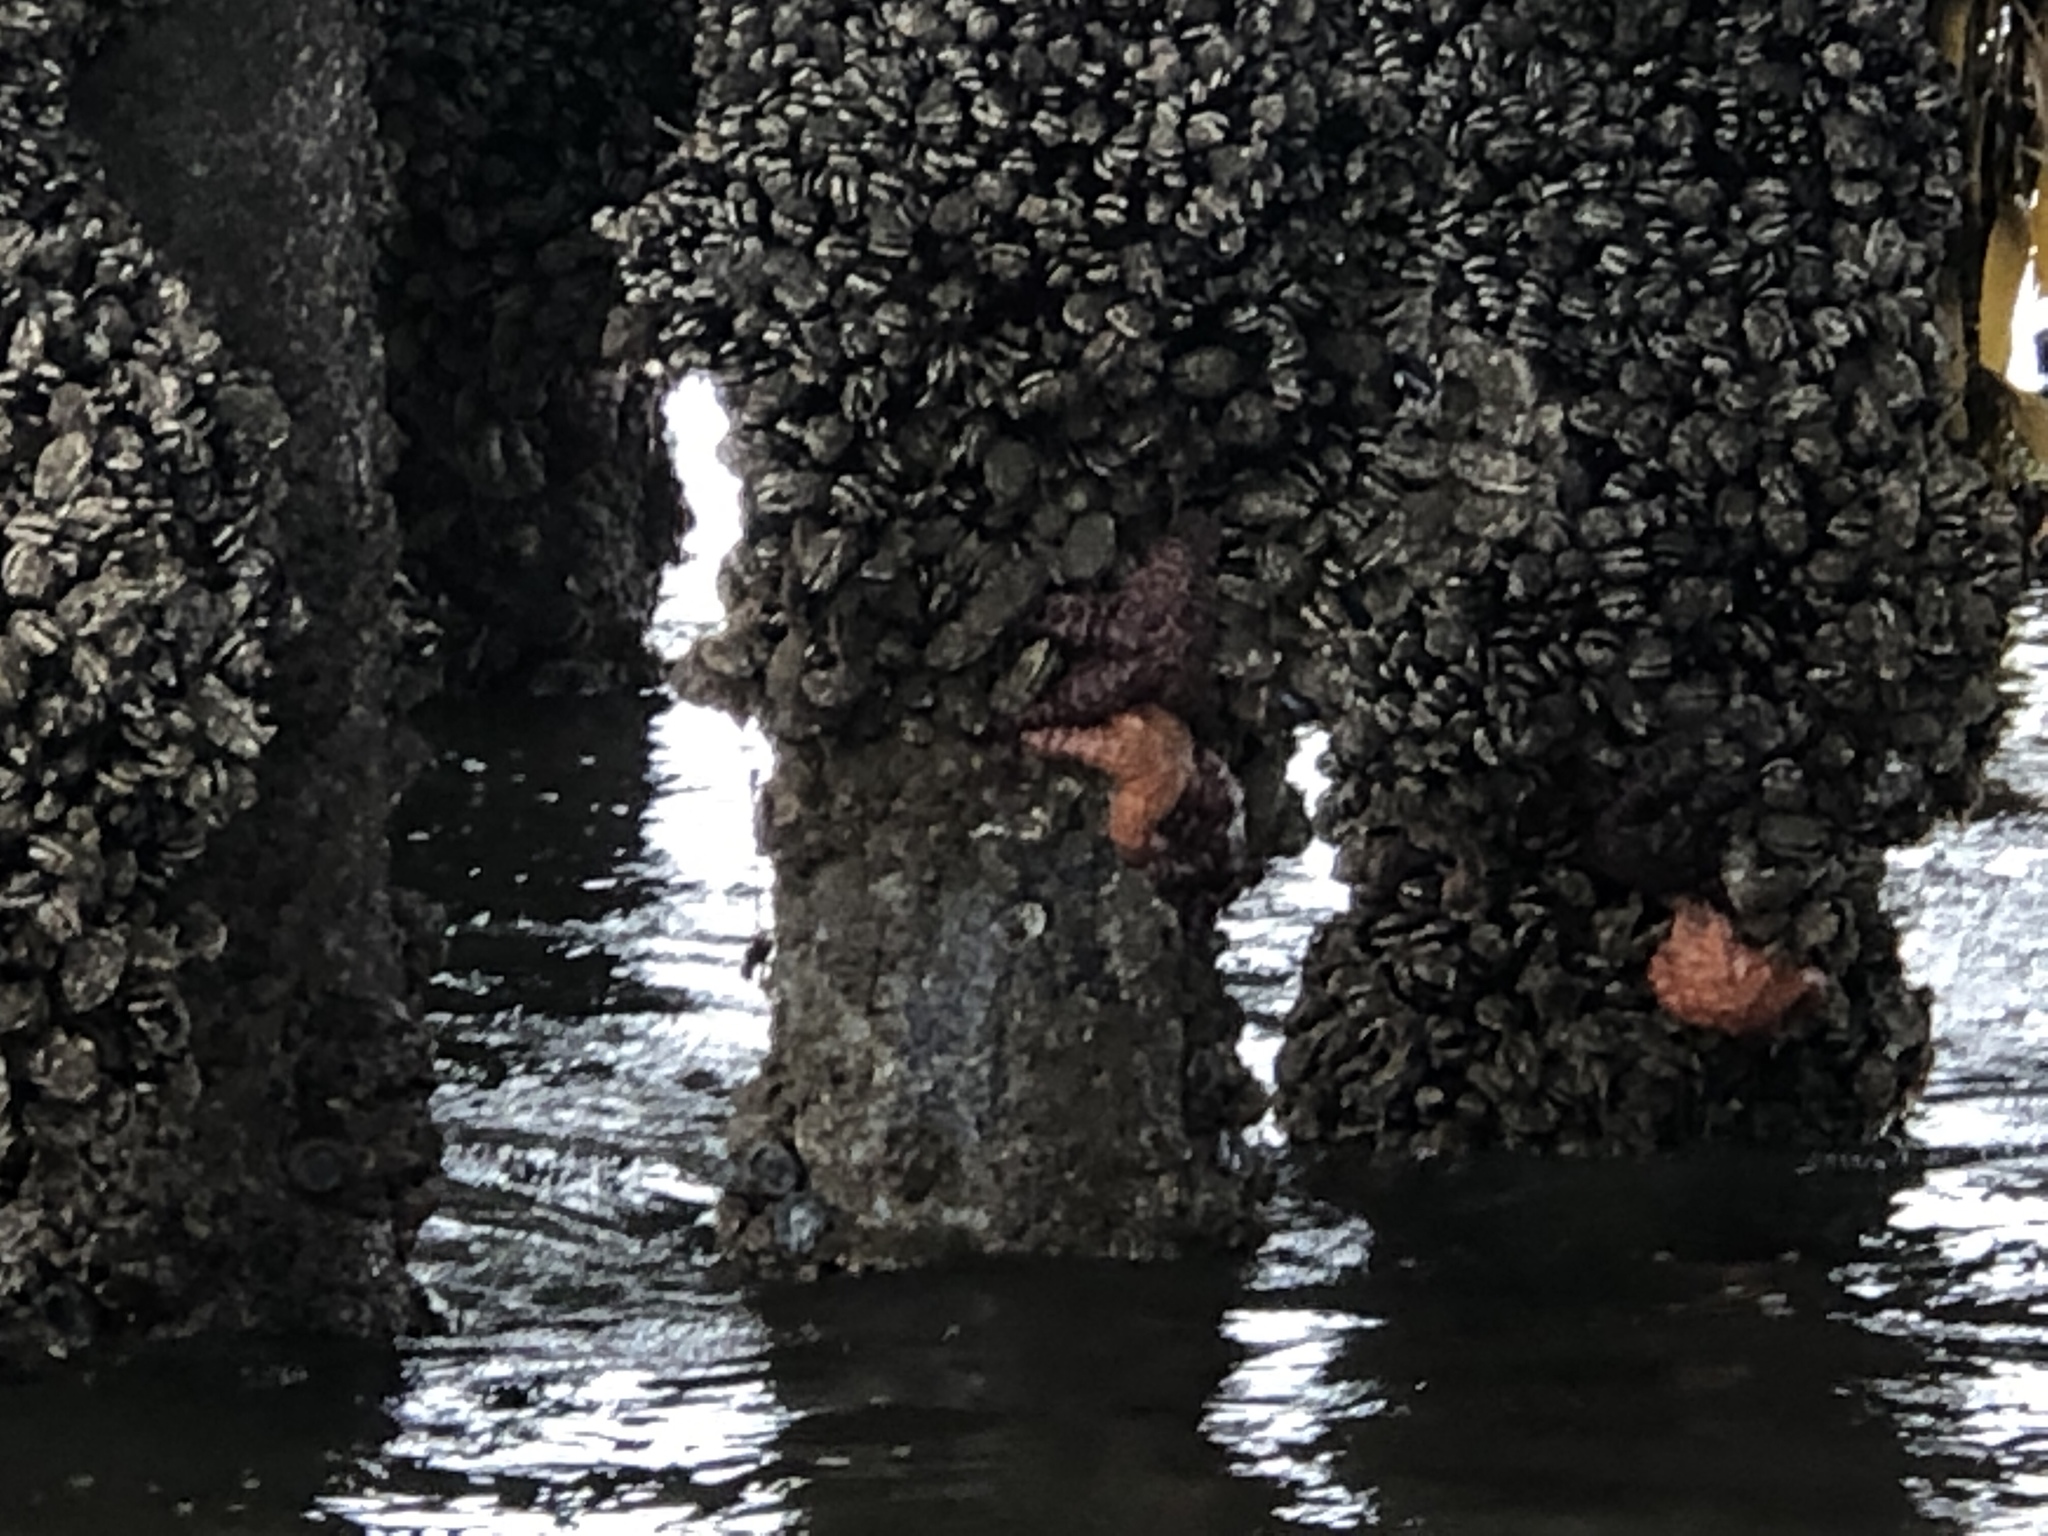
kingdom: Animalia
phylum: Echinodermata
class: Asteroidea
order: Forcipulatida
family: Asteriidae
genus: Pisaster
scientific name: Pisaster ochraceus
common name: Ochre stars
